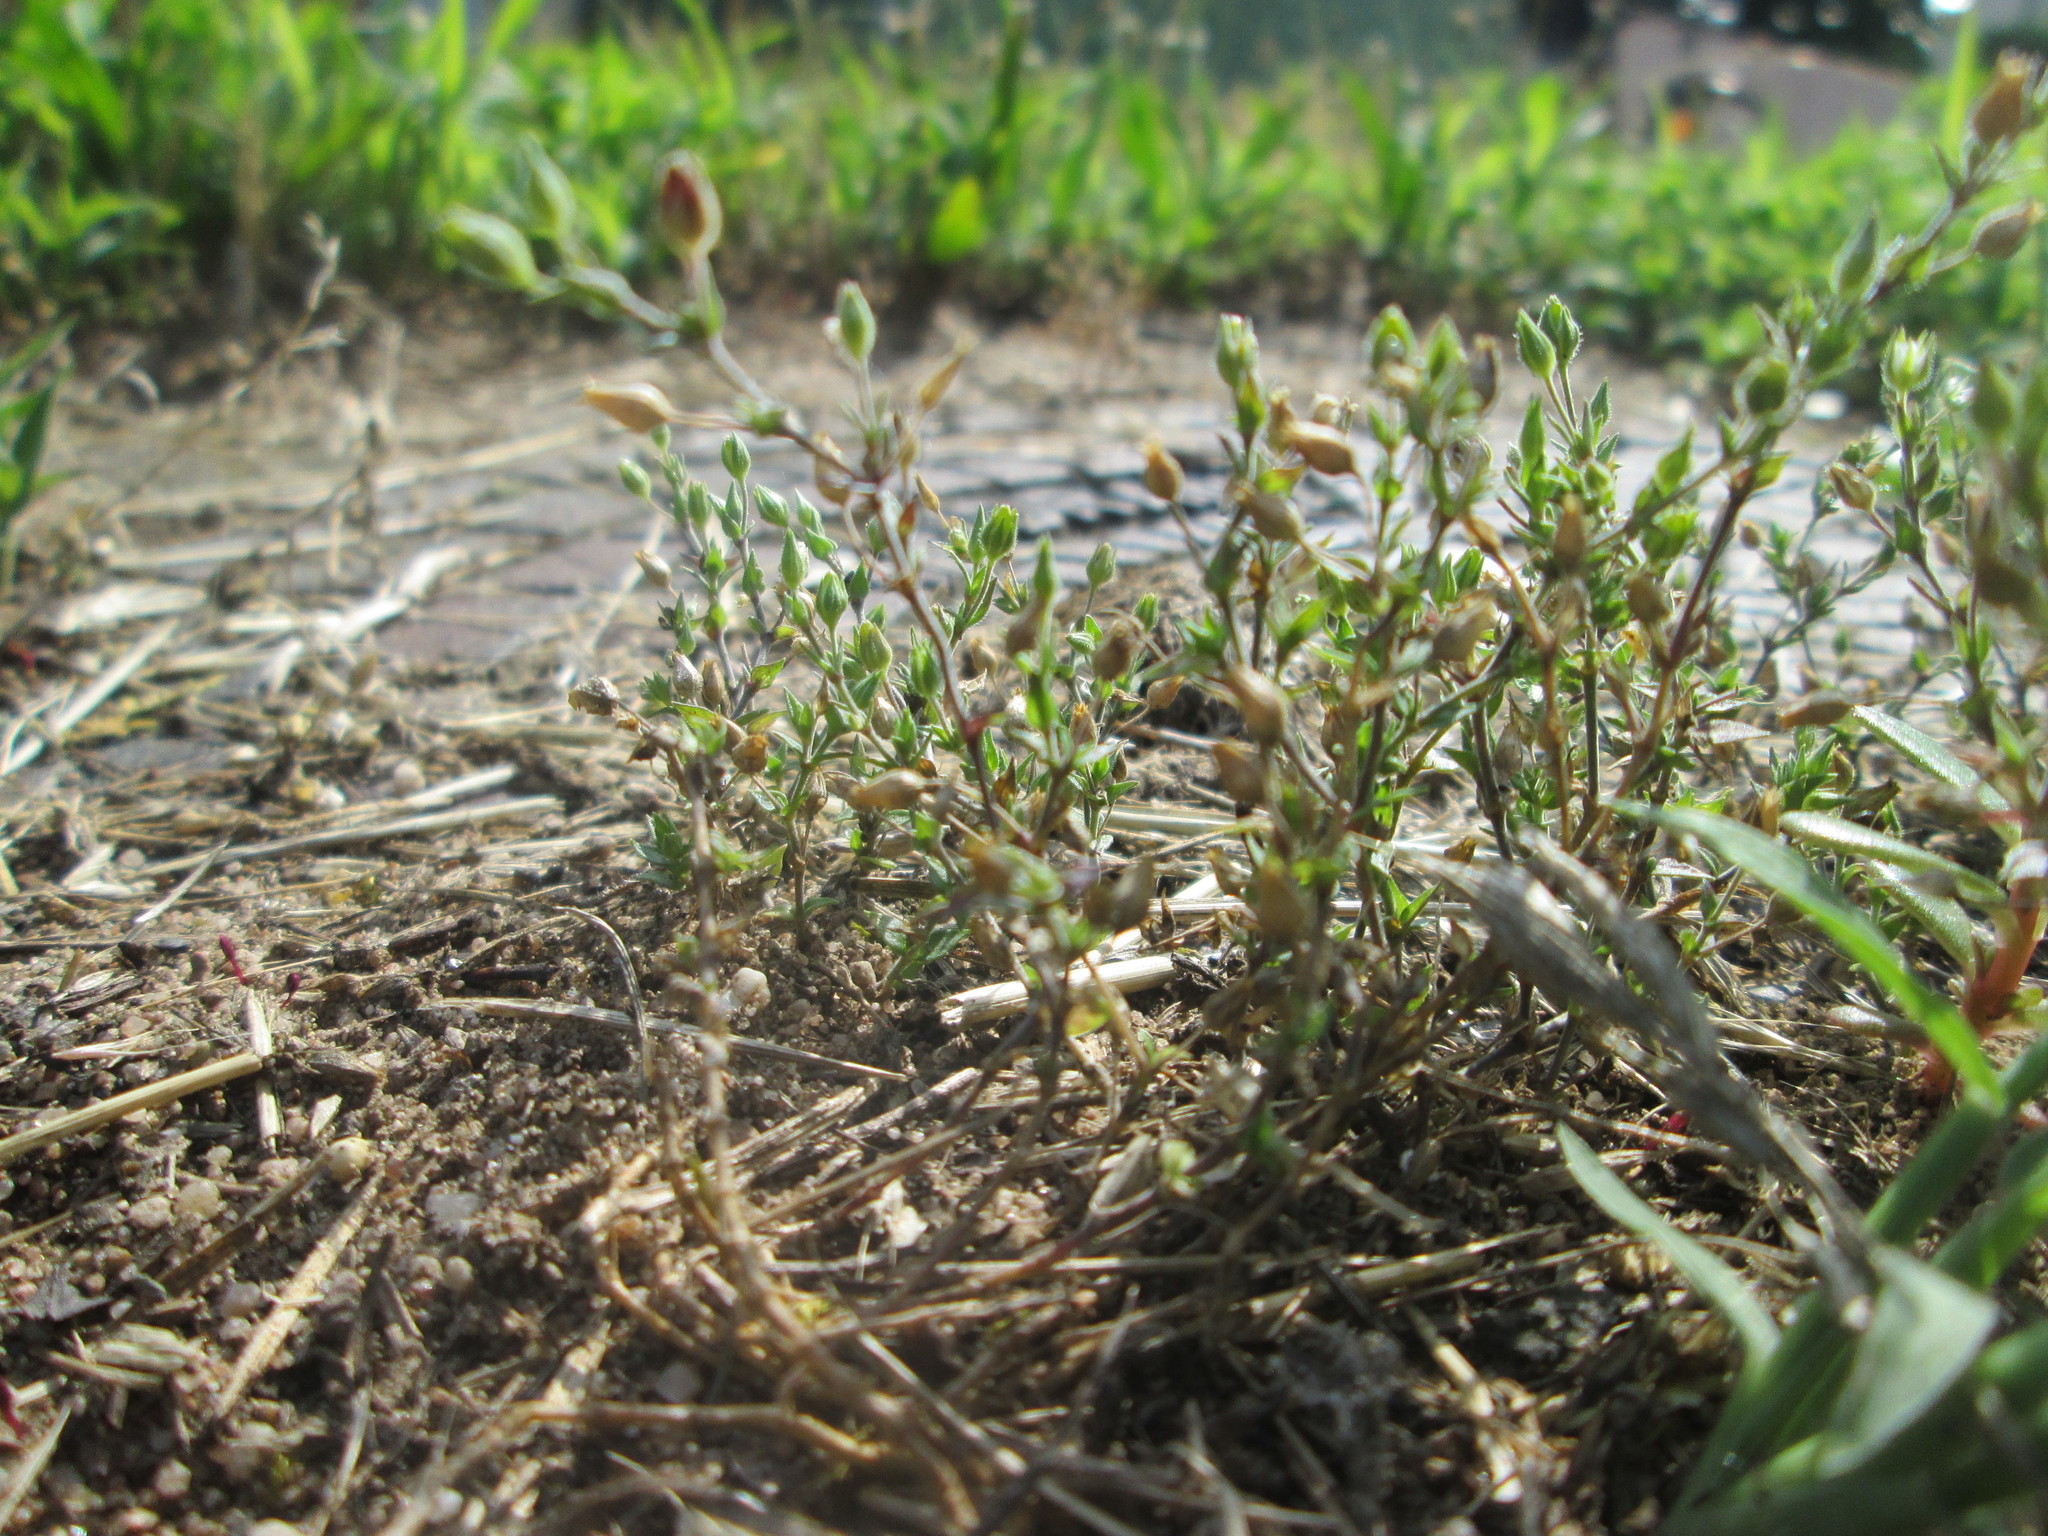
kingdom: Plantae
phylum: Tracheophyta
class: Magnoliopsida
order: Caryophyllales
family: Caryophyllaceae
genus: Arenaria
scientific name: Arenaria serpyllifolia
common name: Thyme-leaved sandwort
